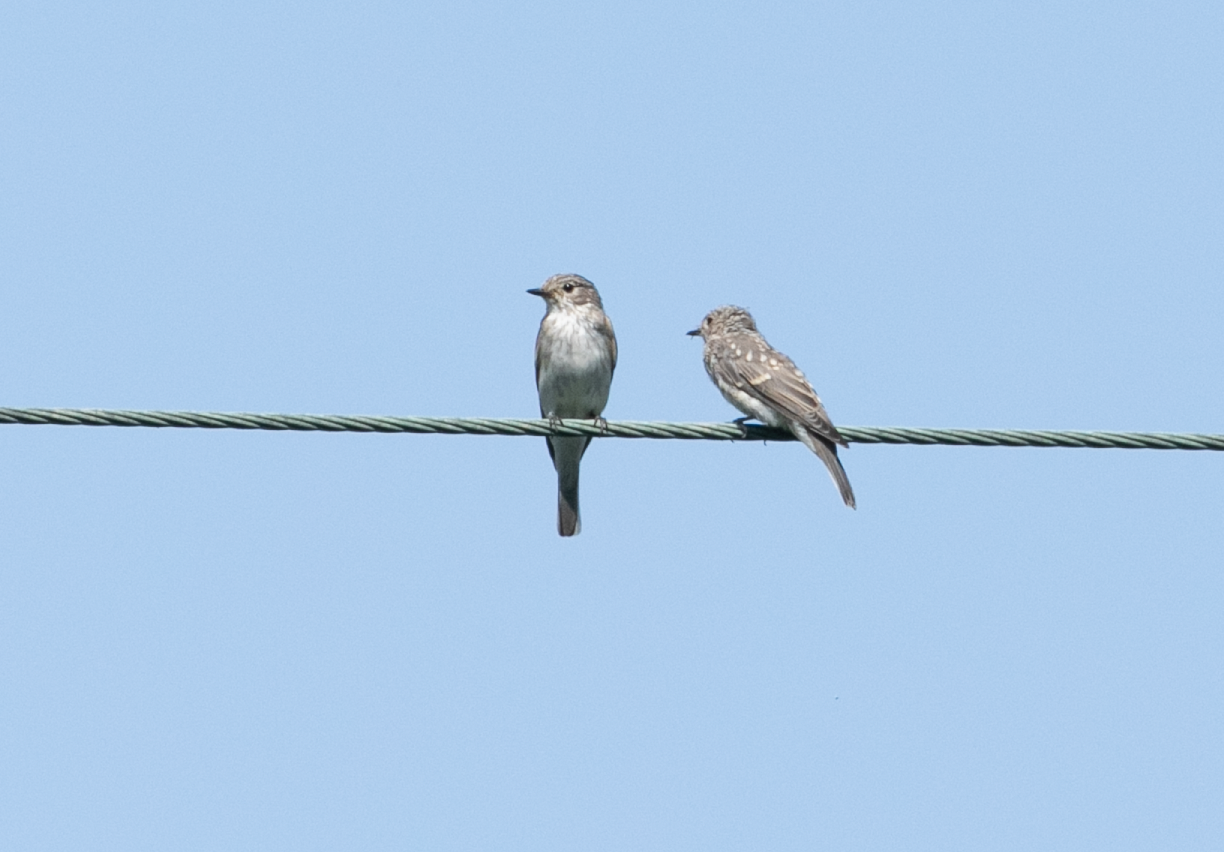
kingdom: Animalia
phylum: Chordata
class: Aves
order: Passeriformes
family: Muscicapidae
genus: Muscicapa
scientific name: Muscicapa striata
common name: Spotted flycatcher
